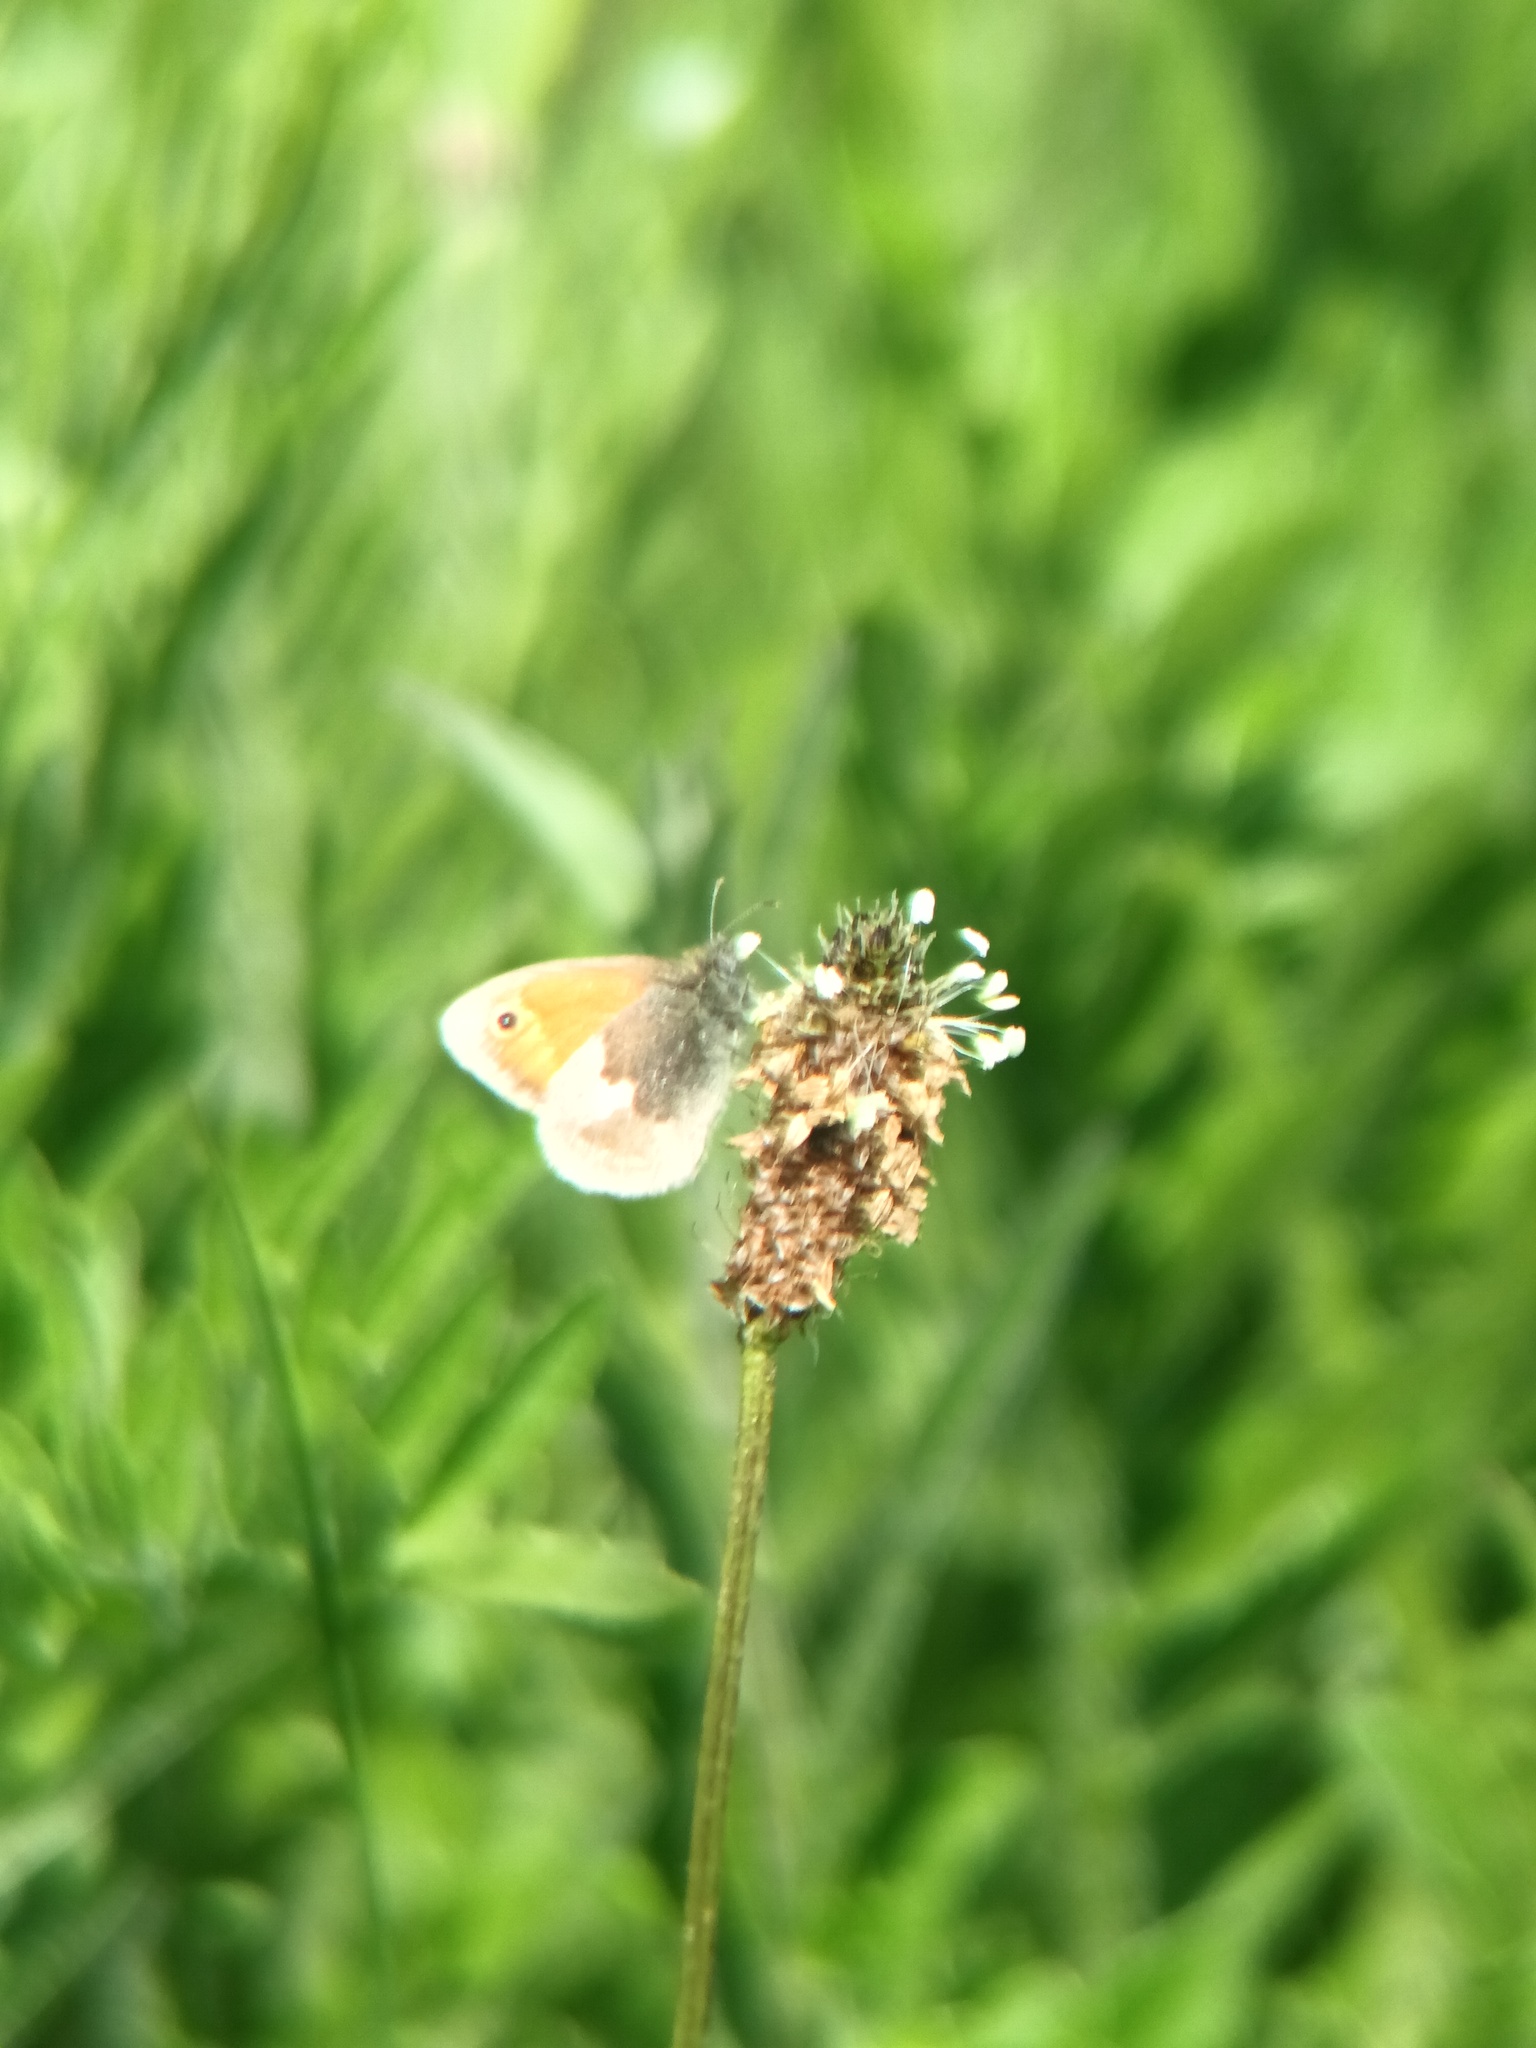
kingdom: Animalia
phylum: Arthropoda
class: Insecta
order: Lepidoptera
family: Nymphalidae
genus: Coenonympha
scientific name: Coenonympha pamphilus
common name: Small heath
